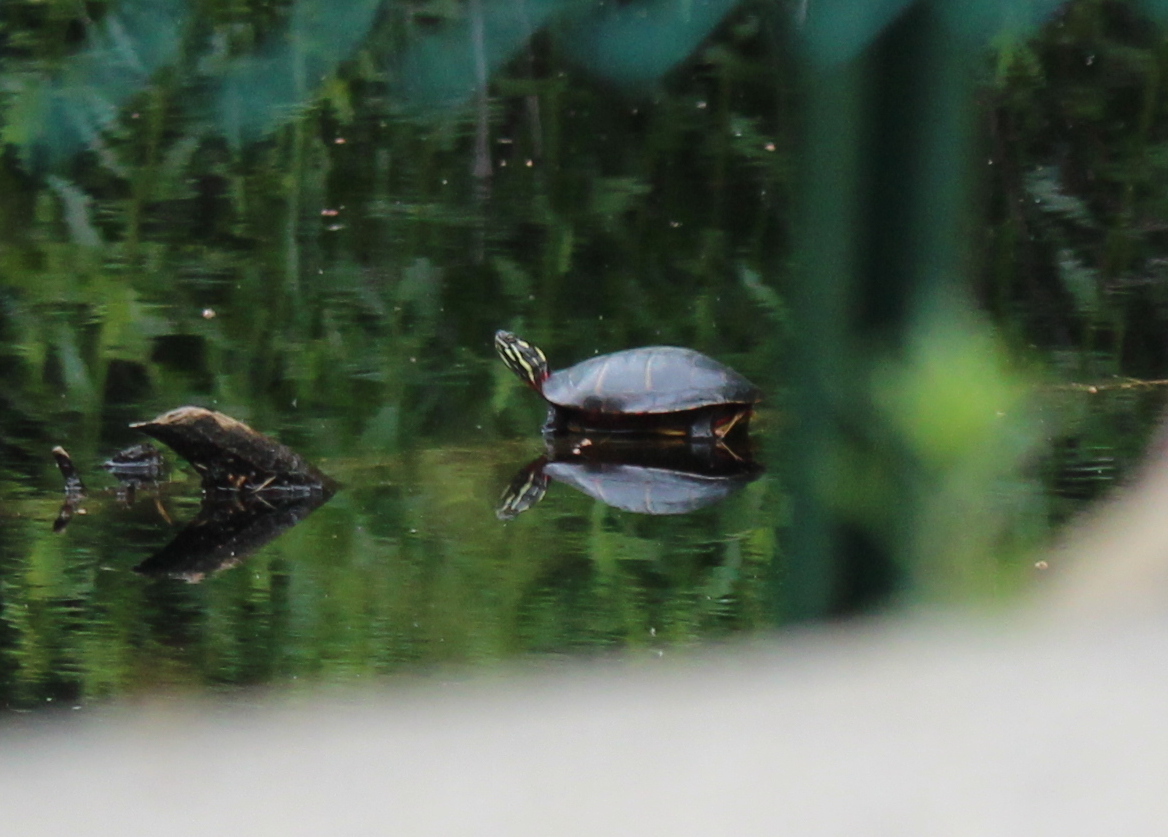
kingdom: Animalia
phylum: Chordata
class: Testudines
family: Emydidae
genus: Chrysemys
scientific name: Chrysemys picta
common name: Painted turtle
